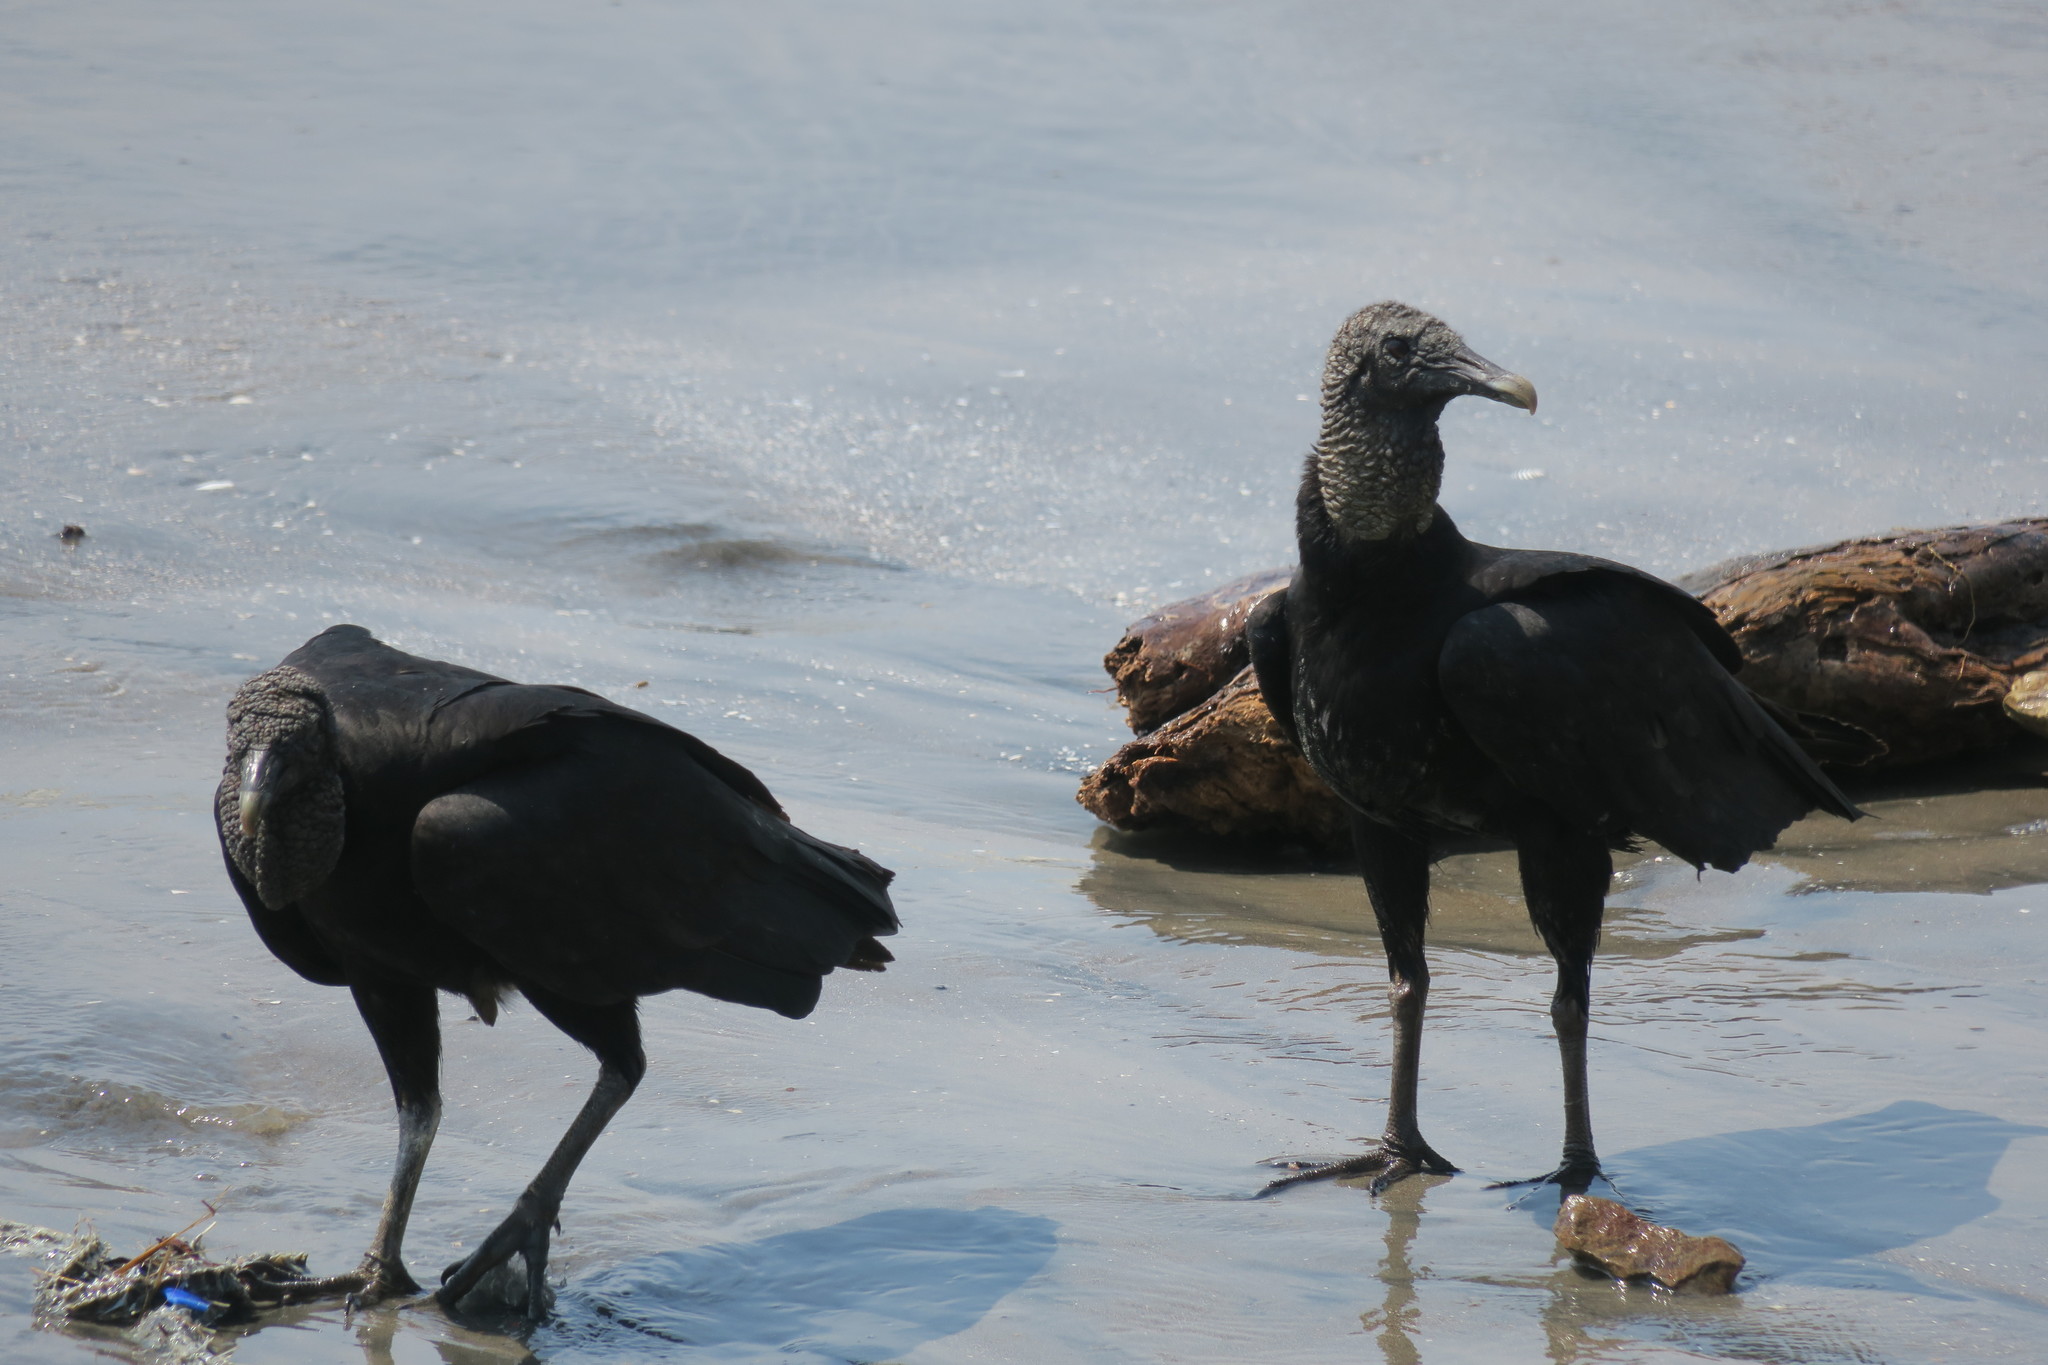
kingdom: Animalia
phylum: Chordata
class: Aves
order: Accipitriformes
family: Cathartidae
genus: Coragyps
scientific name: Coragyps atratus
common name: Black vulture
